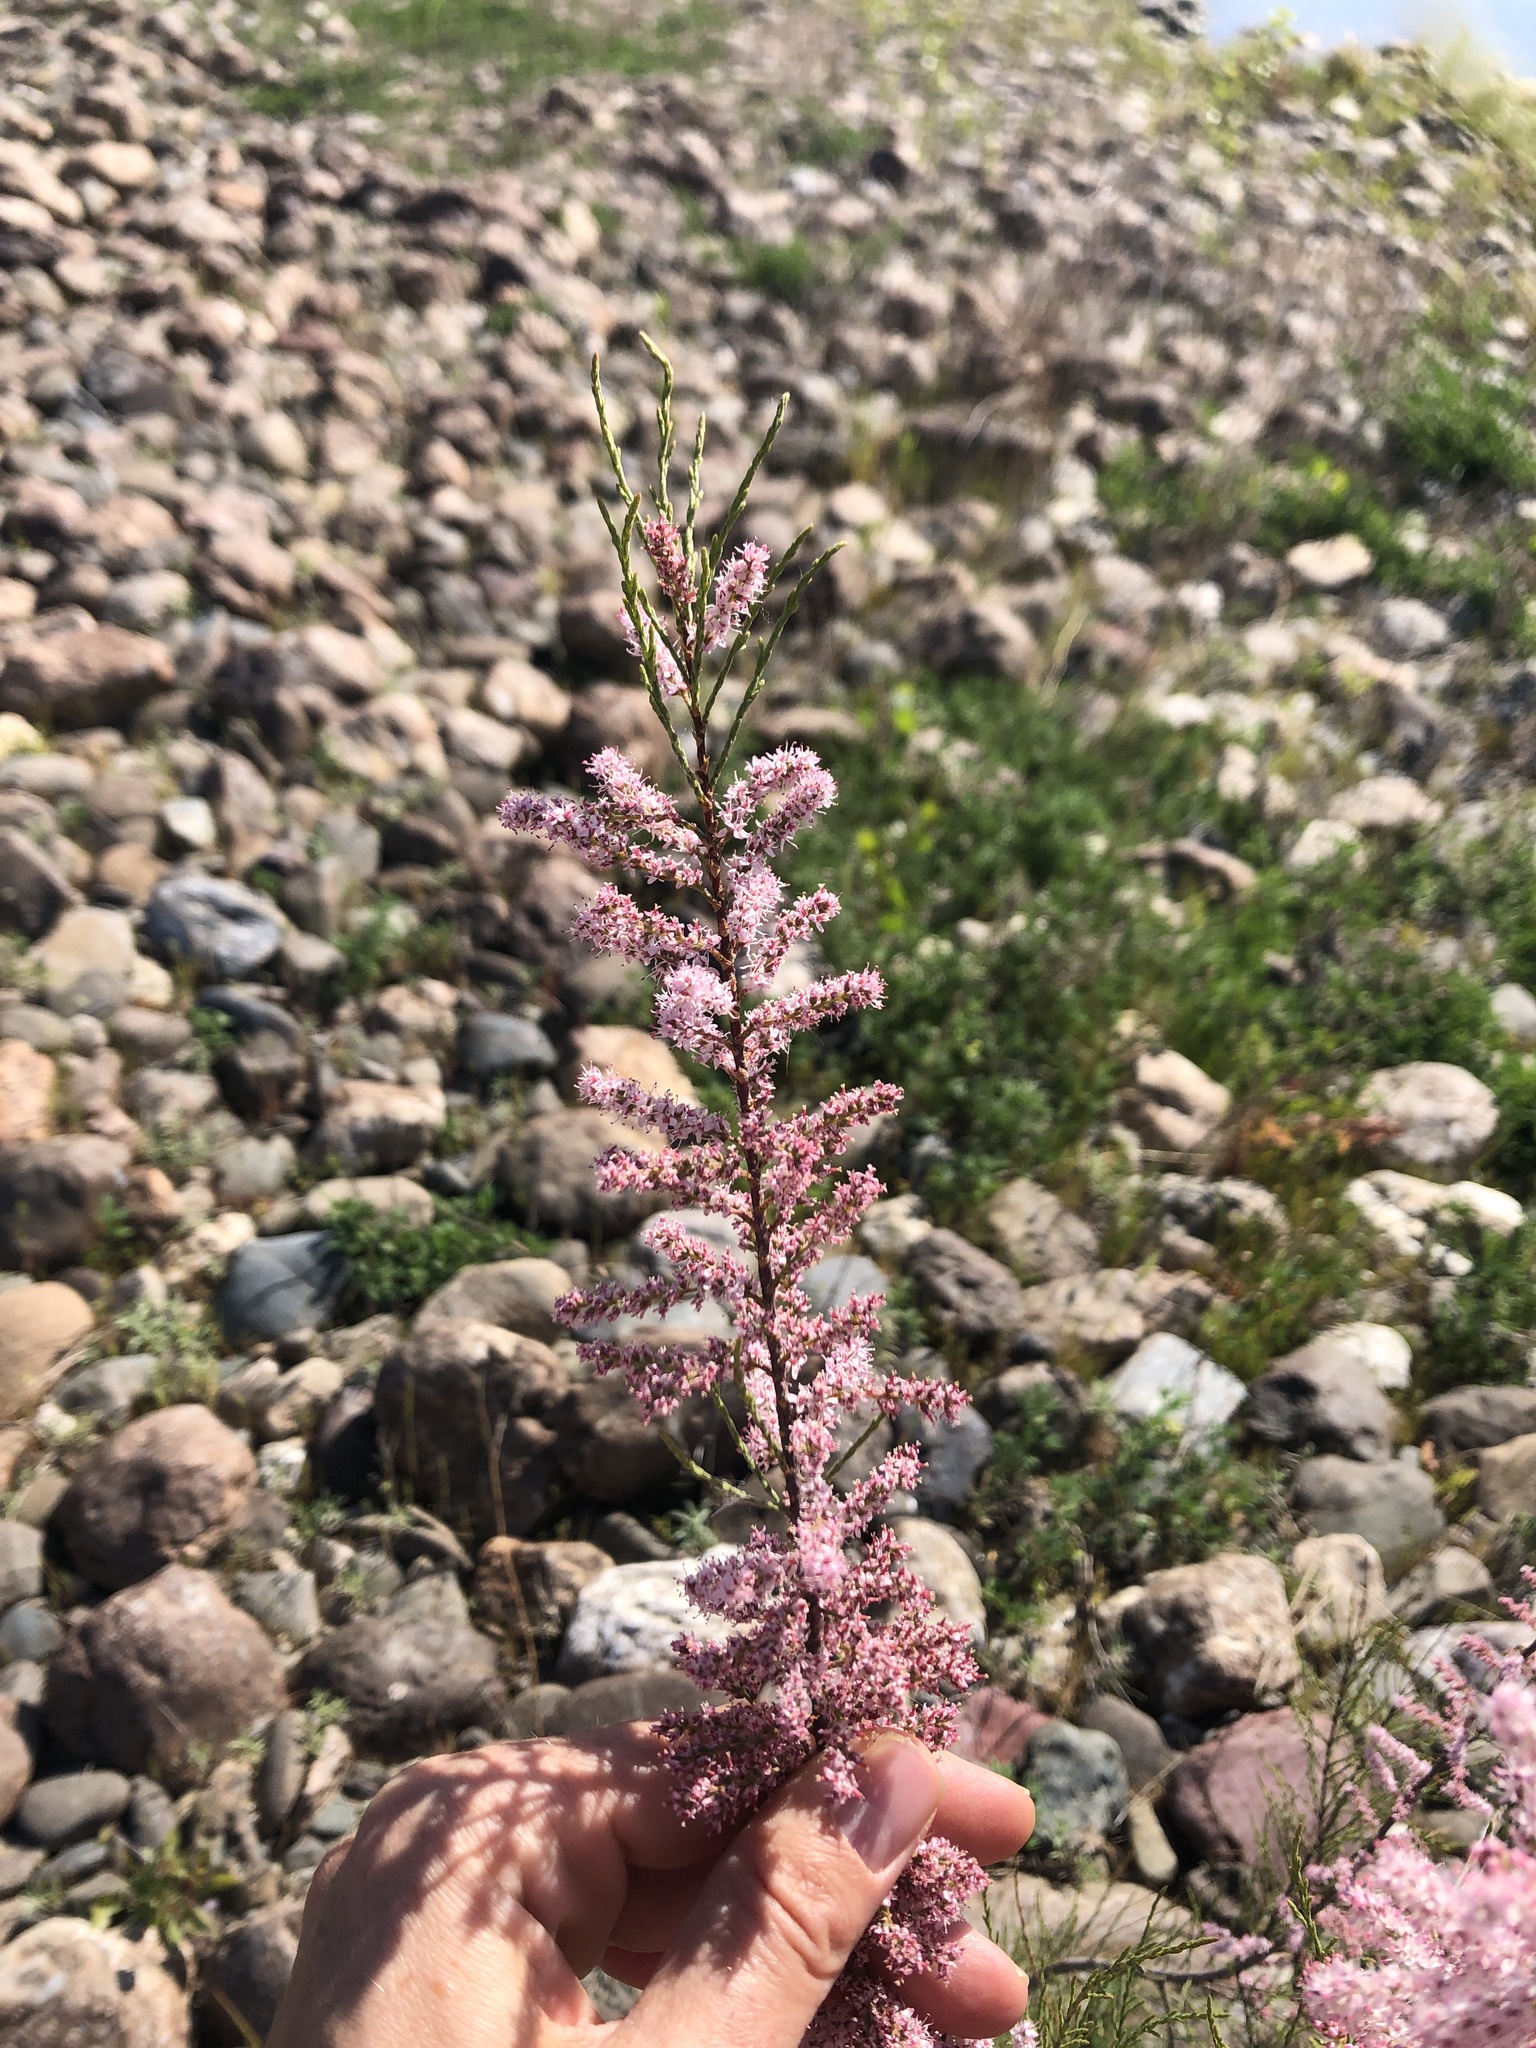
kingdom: Plantae
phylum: Tracheophyta
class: Magnoliopsida
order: Caryophyllales
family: Tamaricaceae
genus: Tamarix
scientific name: Tamarix parviflora
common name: Smallflower tamarisk
